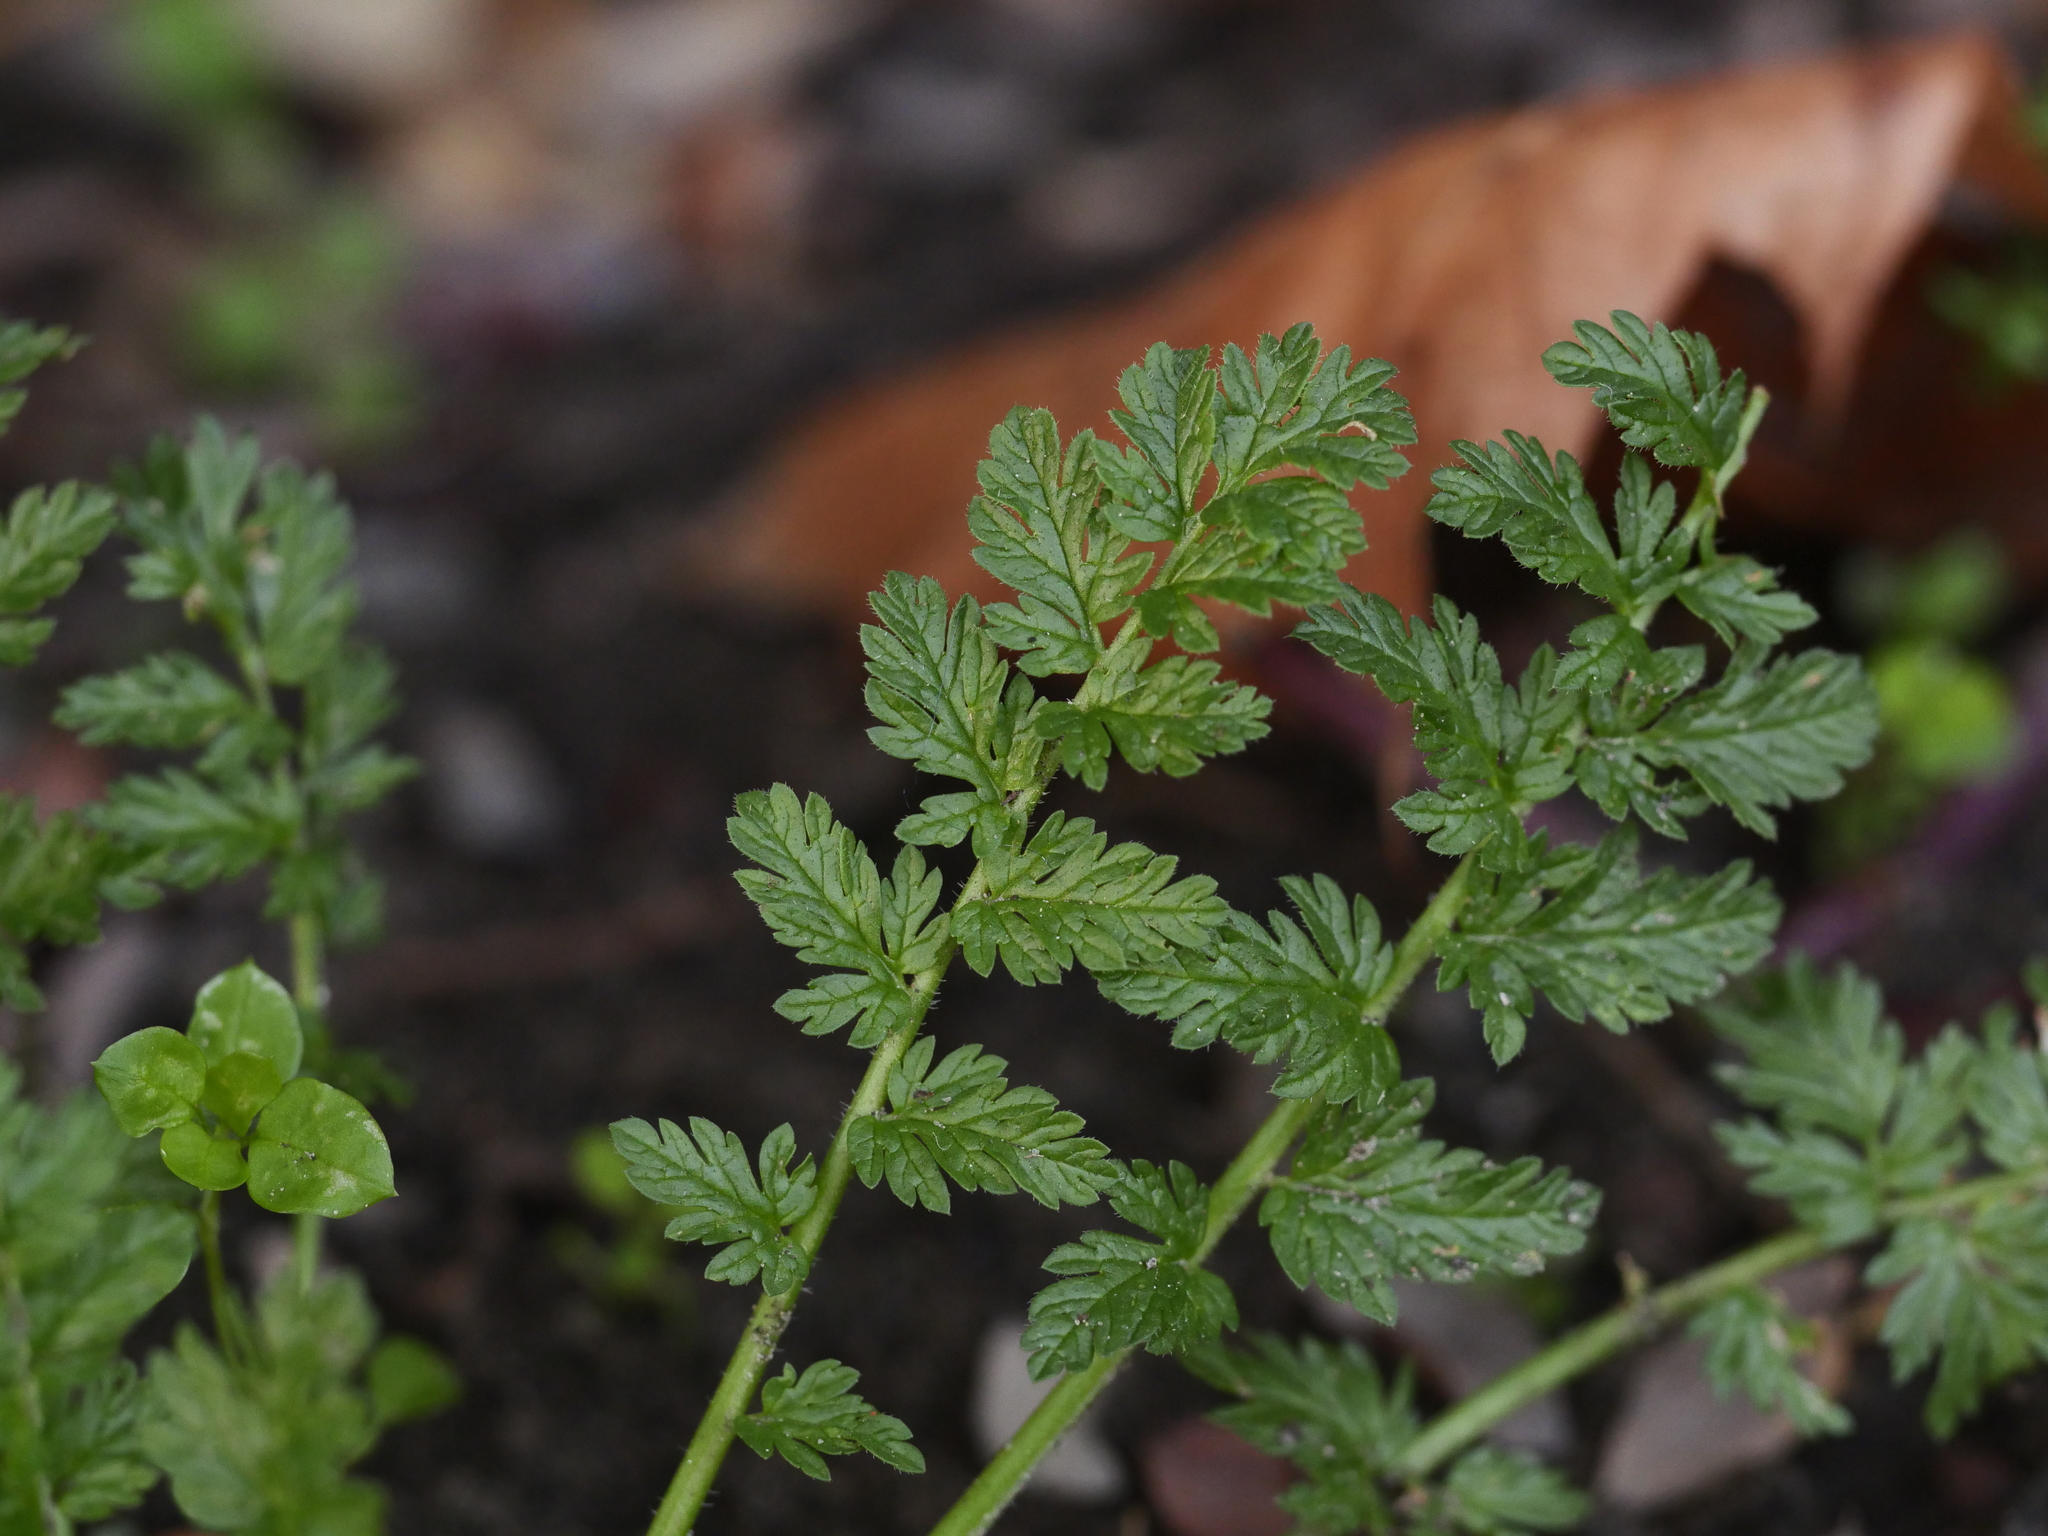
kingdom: Plantae
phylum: Tracheophyta
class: Magnoliopsida
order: Geraniales
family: Geraniaceae
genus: Erodium
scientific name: Erodium cicutarium
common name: Common stork's-bill
